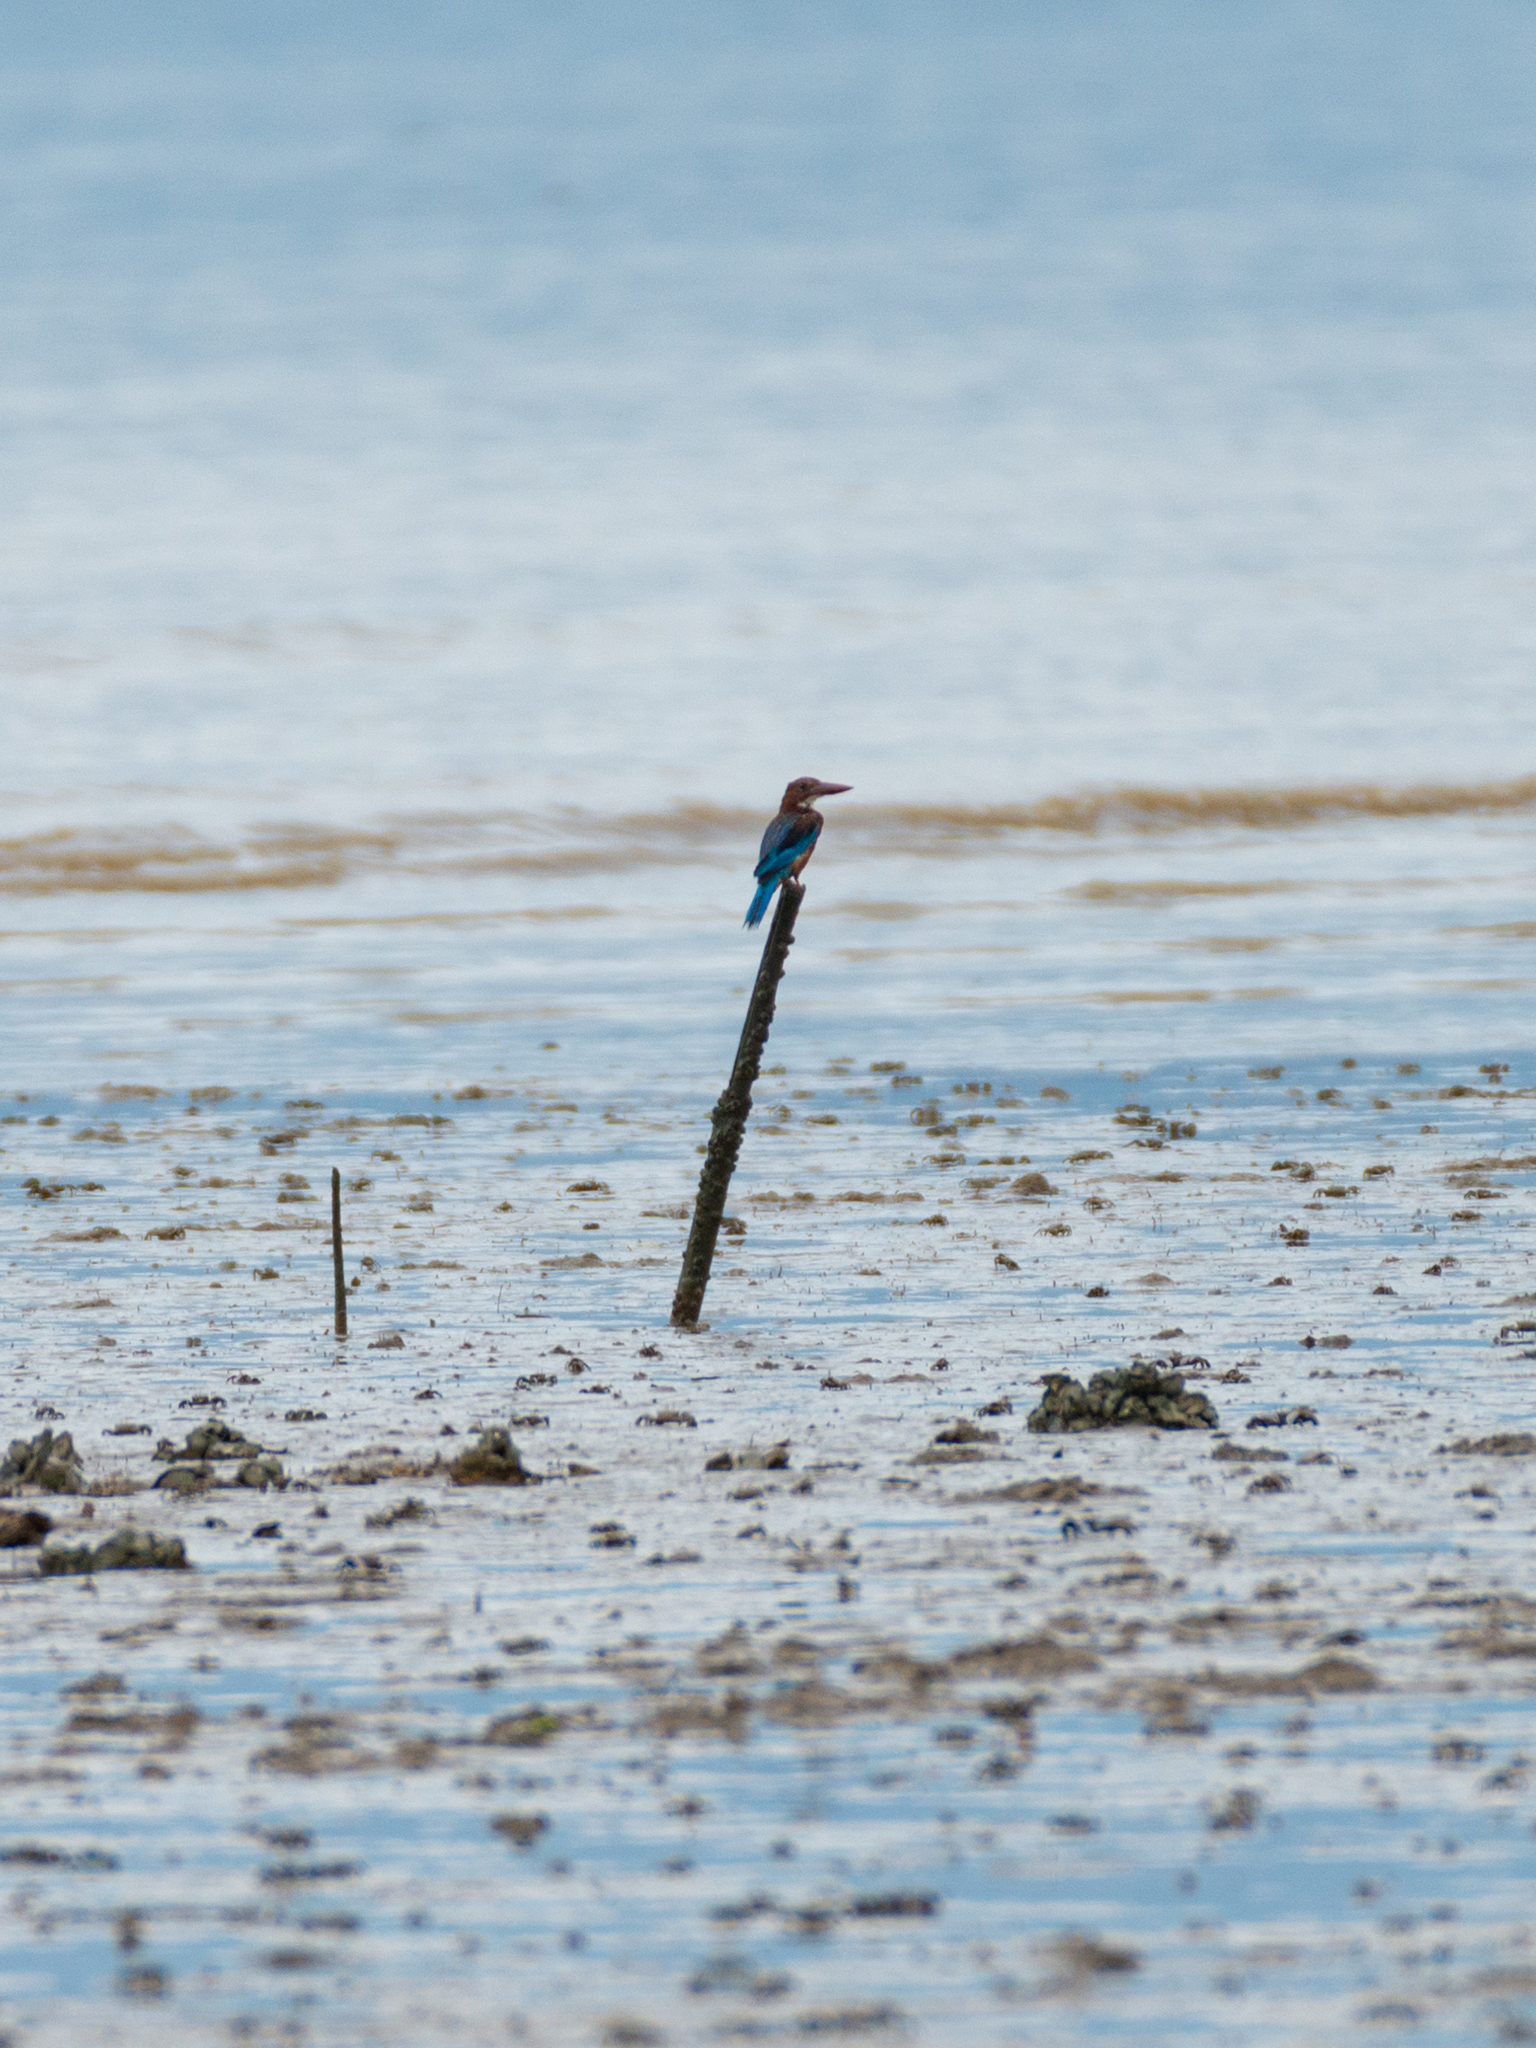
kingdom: Animalia
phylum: Chordata
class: Aves
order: Coraciiformes
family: Alcedinidae
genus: Halcyon
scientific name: Halcyon smyrnensis
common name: White-throated kingfisher
